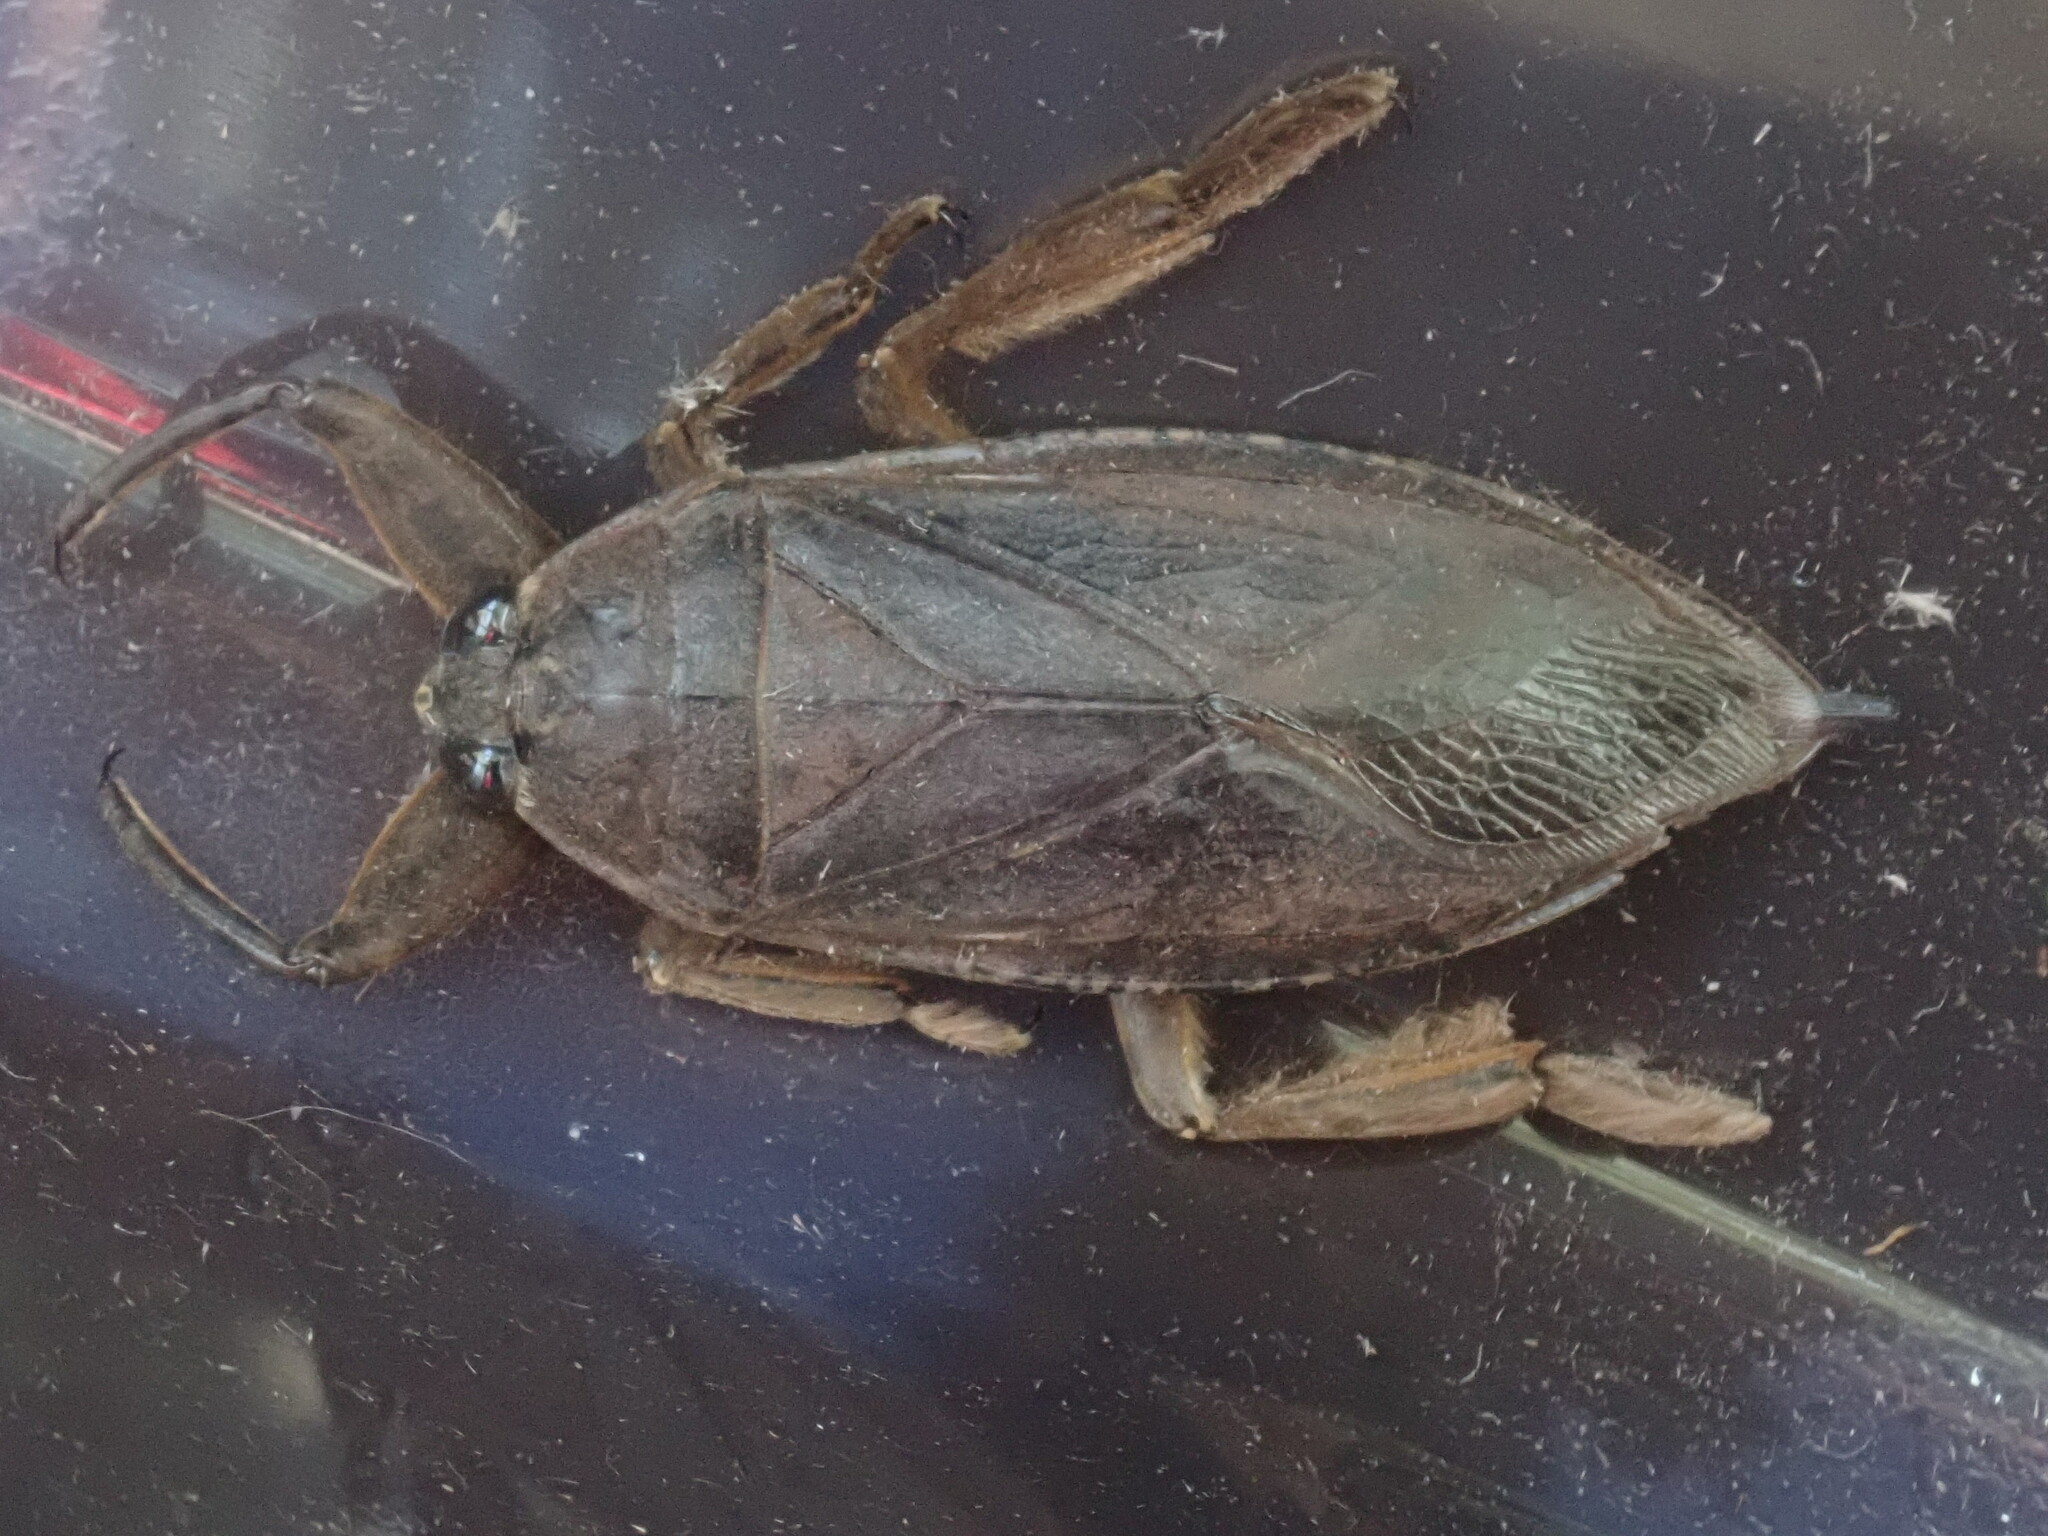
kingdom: Animalia
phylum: Arthropoda
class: Insecta
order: Hemiptera
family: Belostomatidae
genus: Lethocerus
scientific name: Lethocerus americanus
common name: Giant water bug
